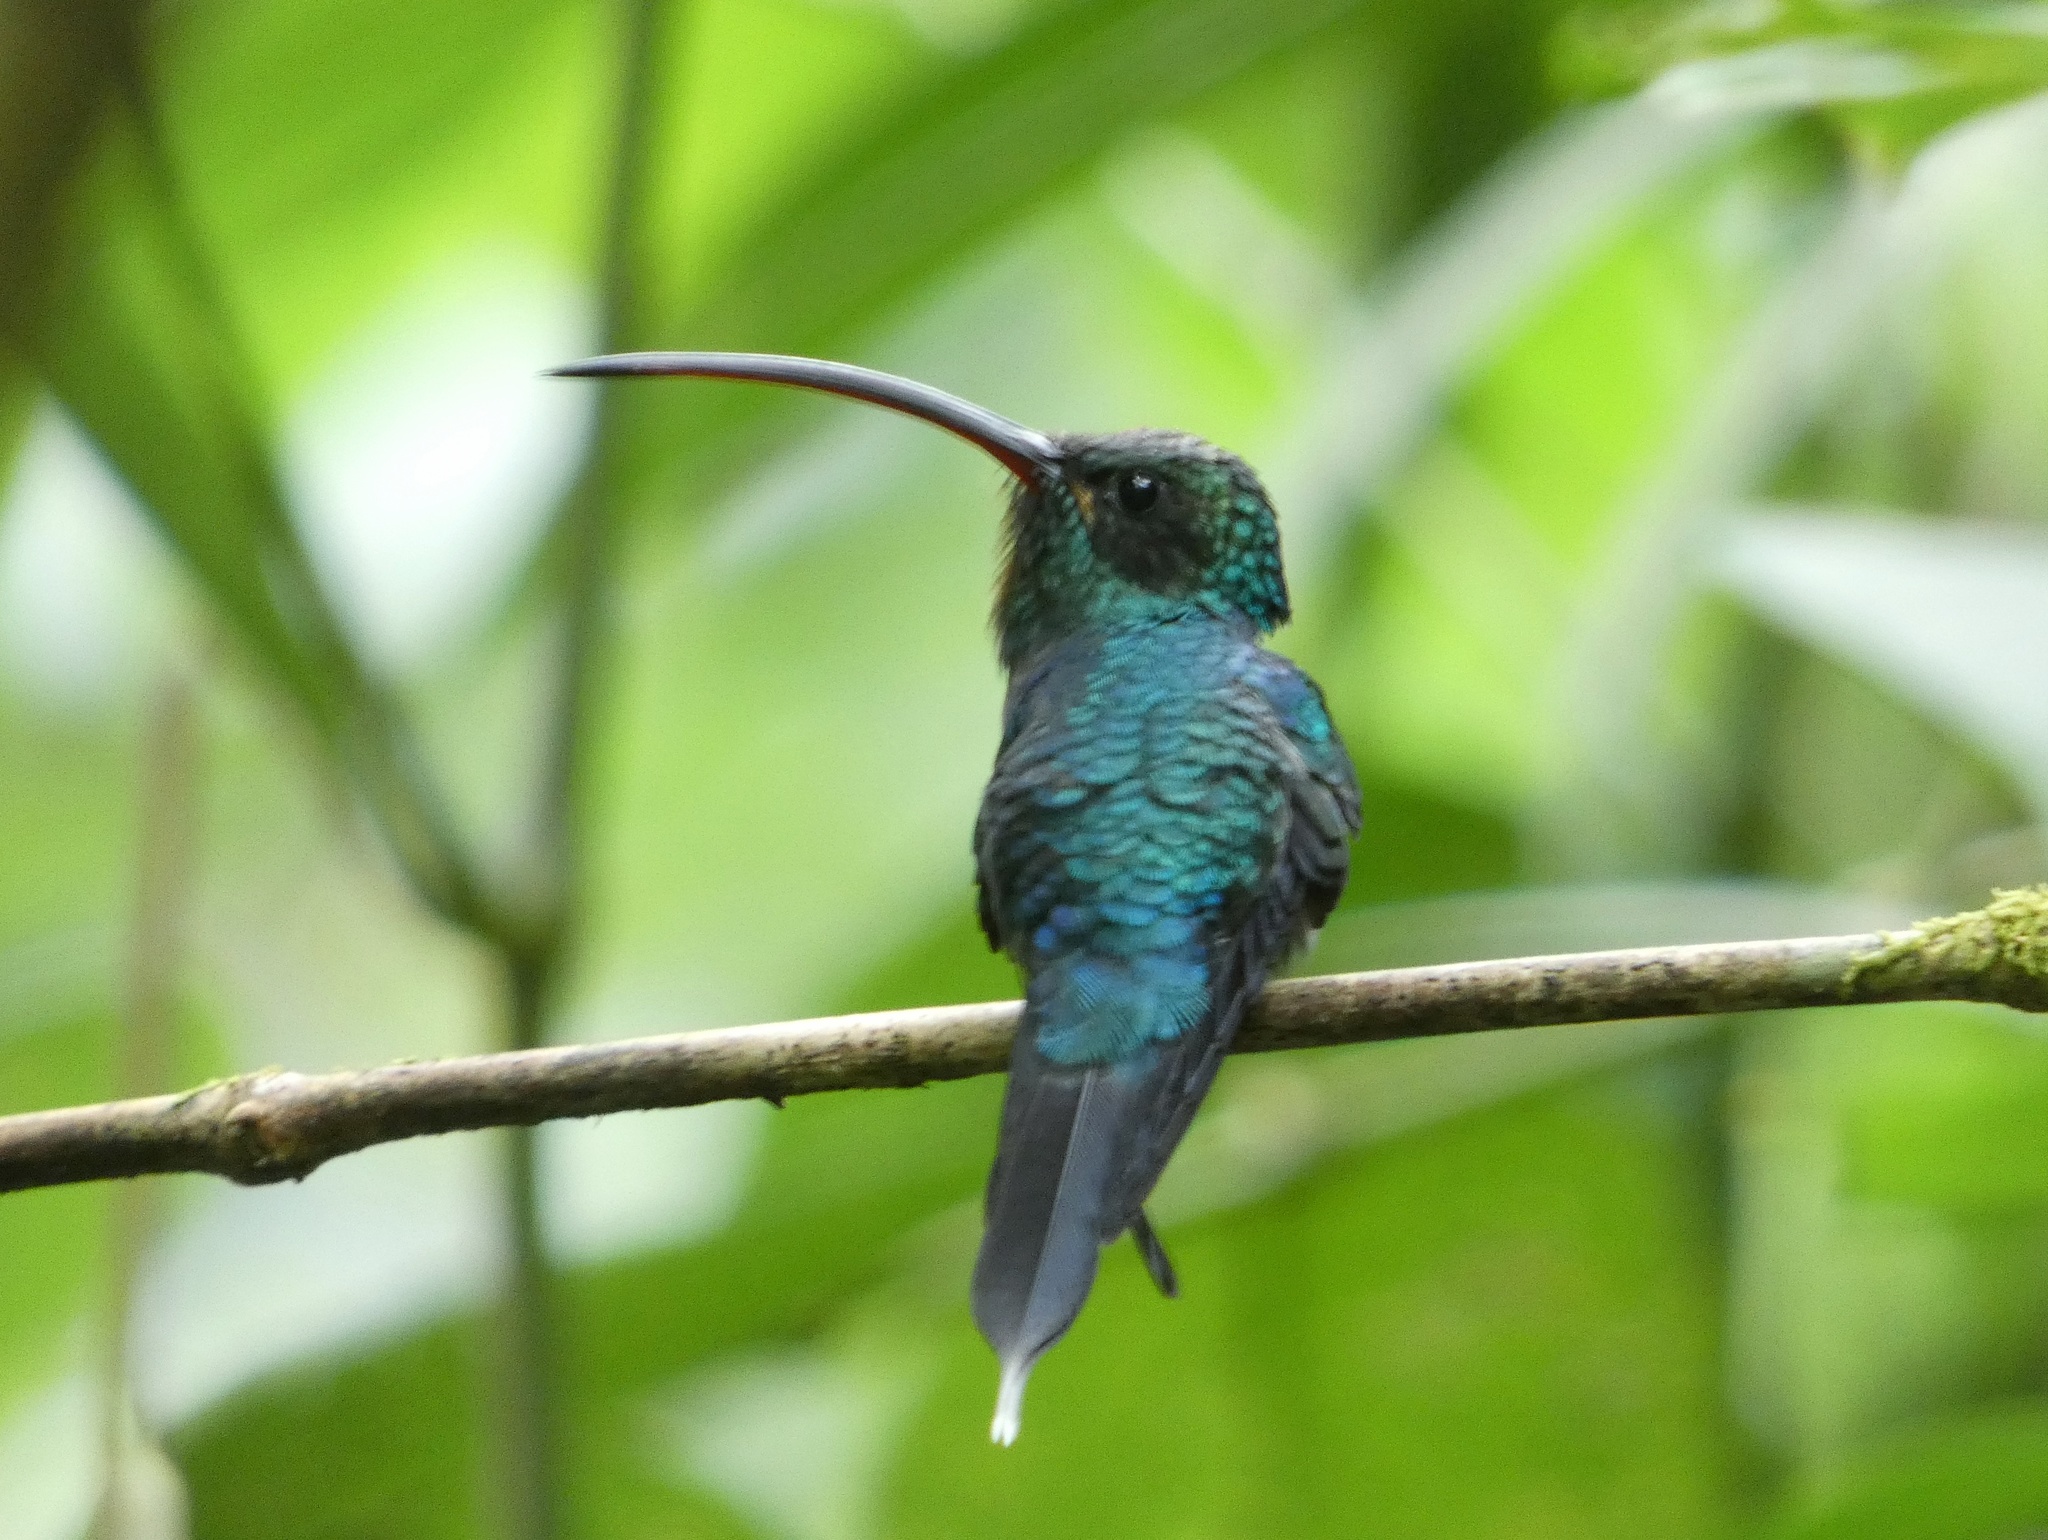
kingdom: Animalia
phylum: Chordata
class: Aves
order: Apodiformes
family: Trochilidae
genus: Phaethornis
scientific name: Phaethornis guy
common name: Green hermit
